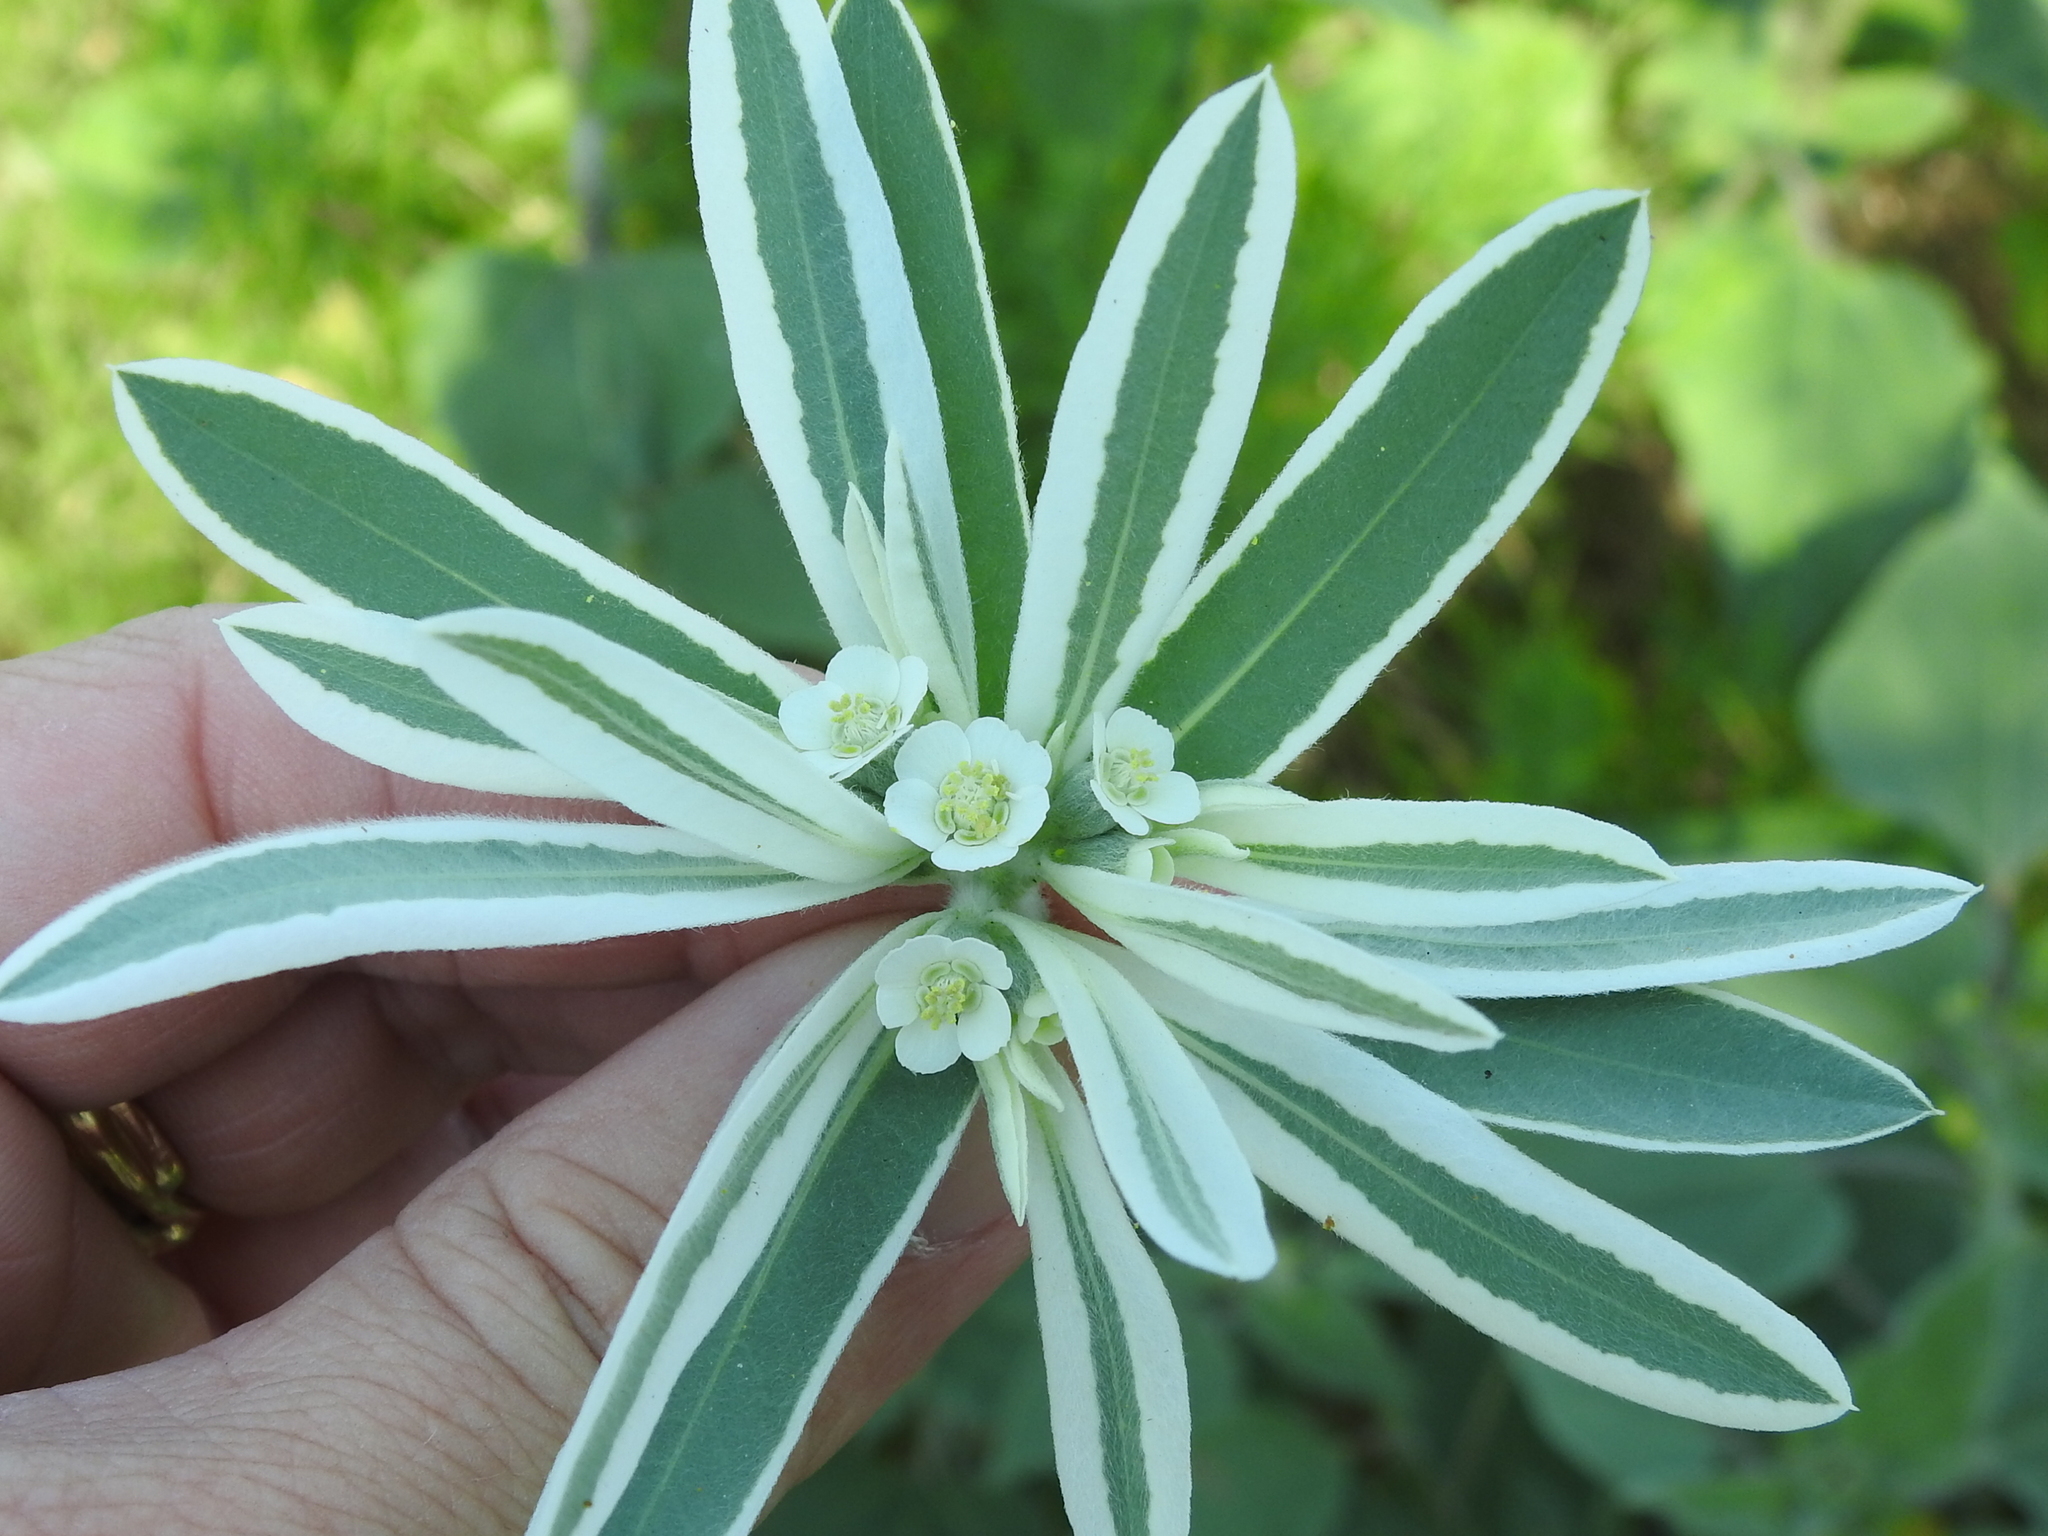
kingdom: Plantae
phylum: Tracheophyta
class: Magnoliopsida
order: Malpighiales
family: Euphorbiaceae
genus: Euphorbia
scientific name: Euphorbia bicolor
